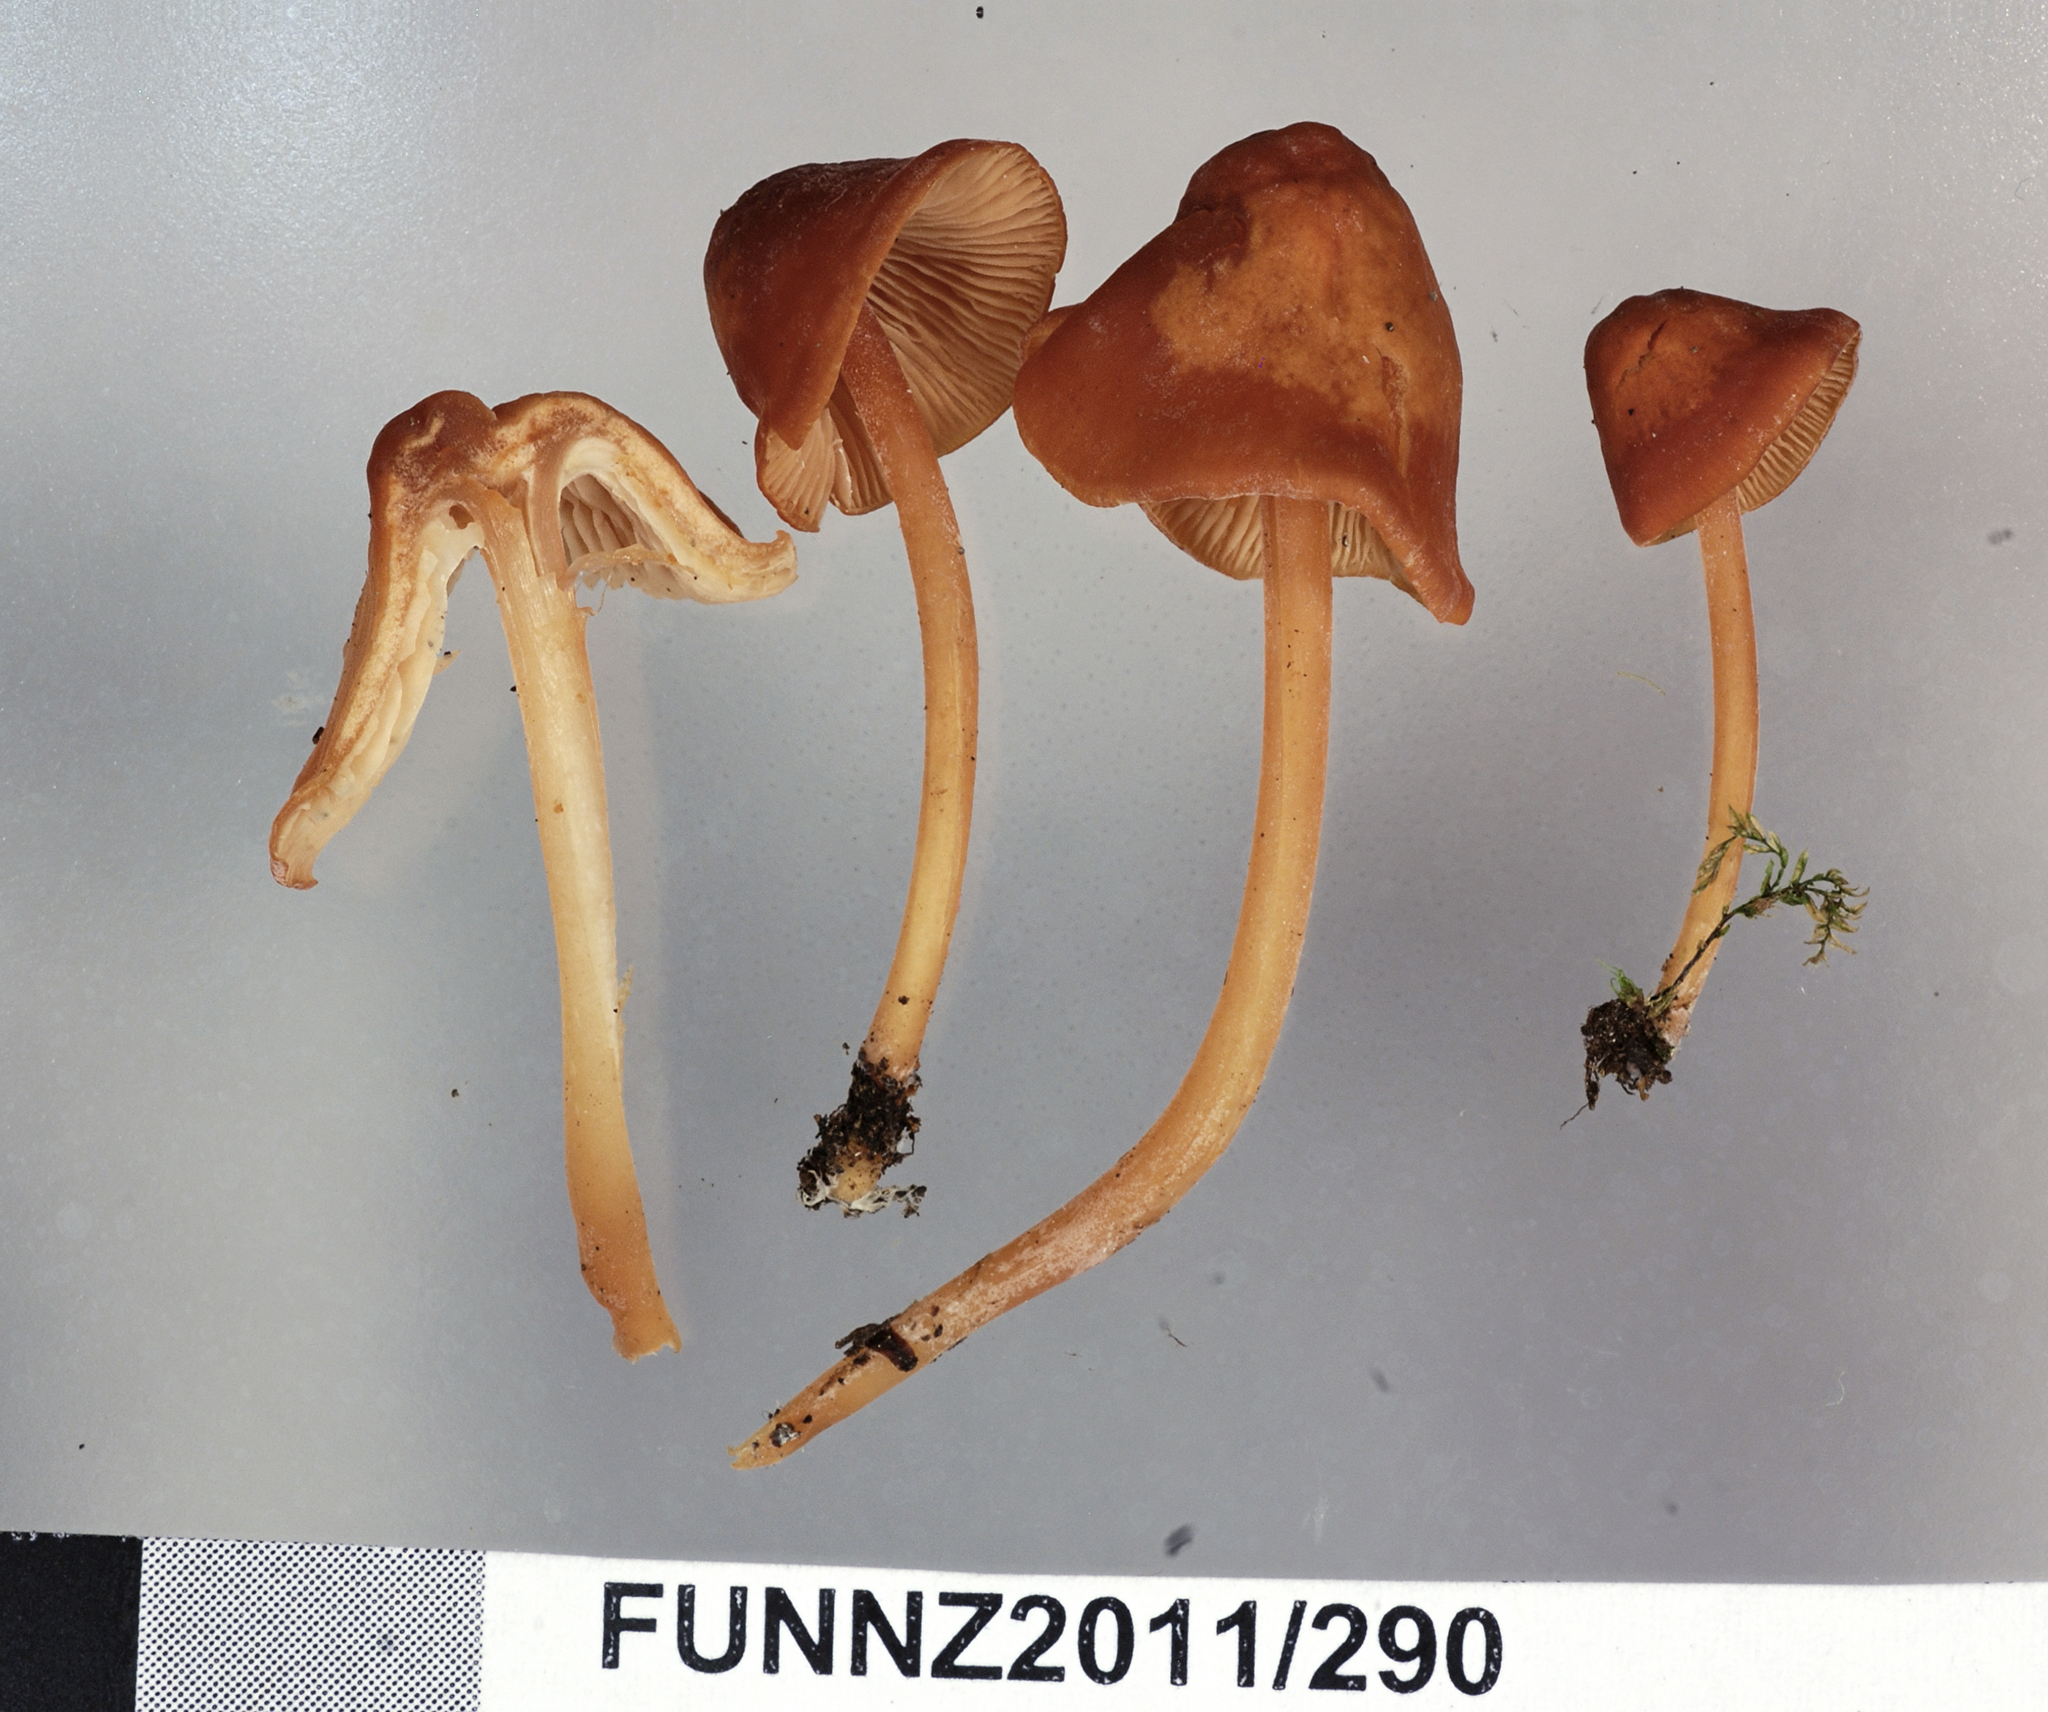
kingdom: Fungi
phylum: Basidiomycota
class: Agaricomycetes
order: Agaricales
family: Tricholomataceae
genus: Omphalina
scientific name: Omphalina wellingtonensis
